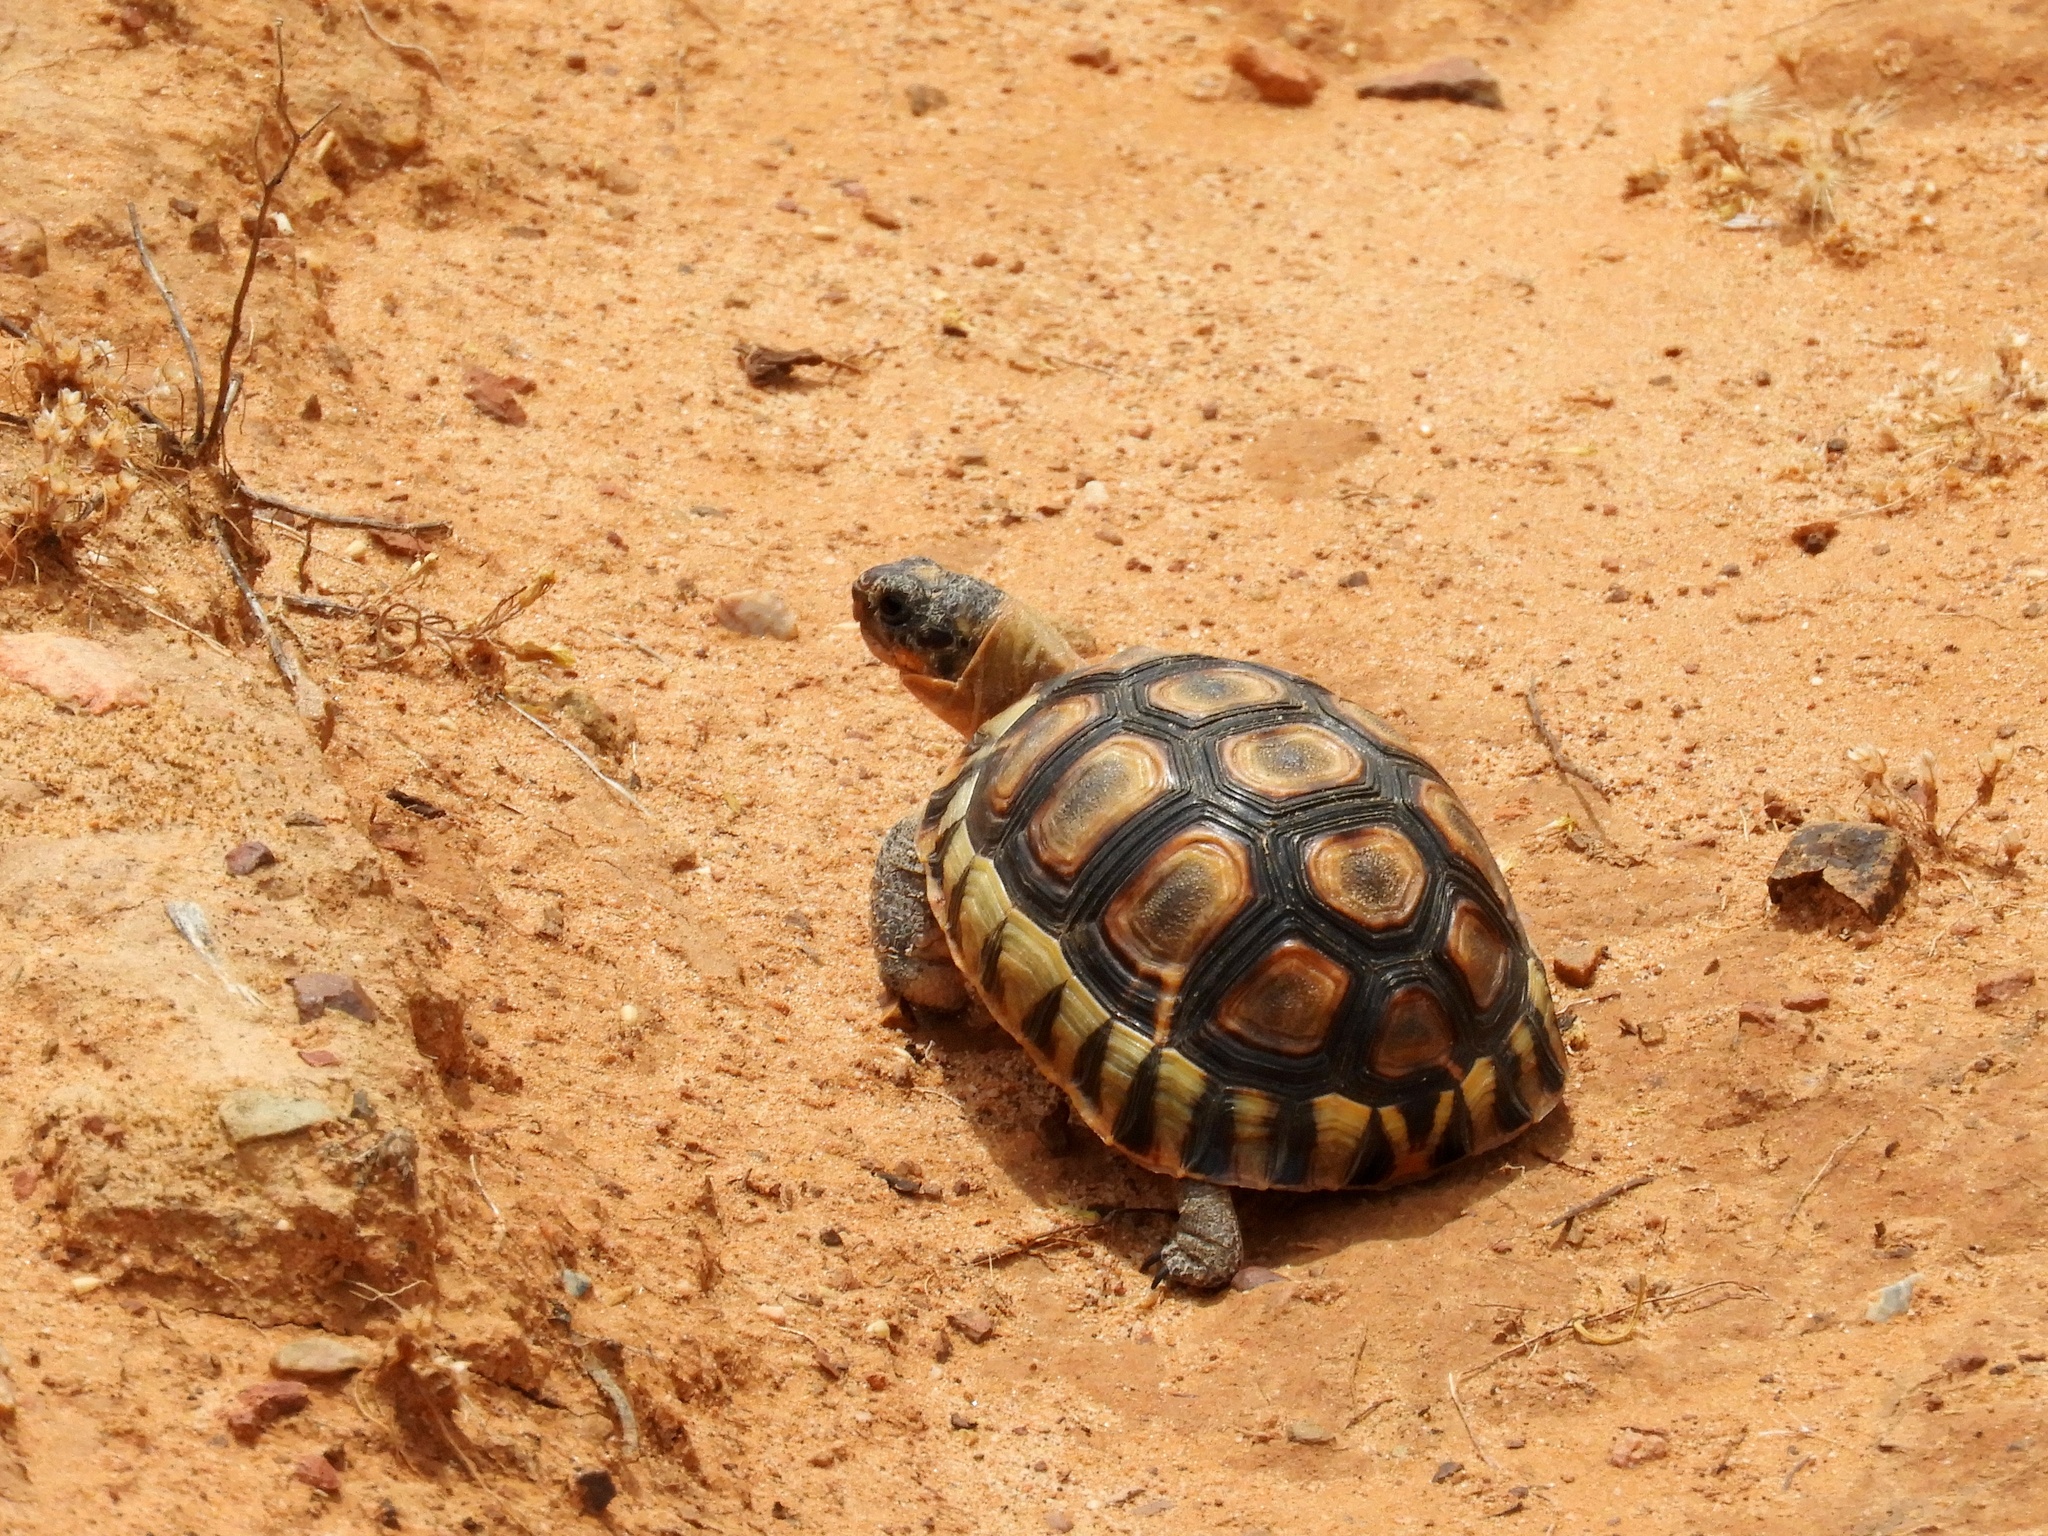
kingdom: Animalia
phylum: Chordata
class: Testudines
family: Testudinidae
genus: Chersina
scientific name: Chersina angulata
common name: South african bowsprit tortoise
